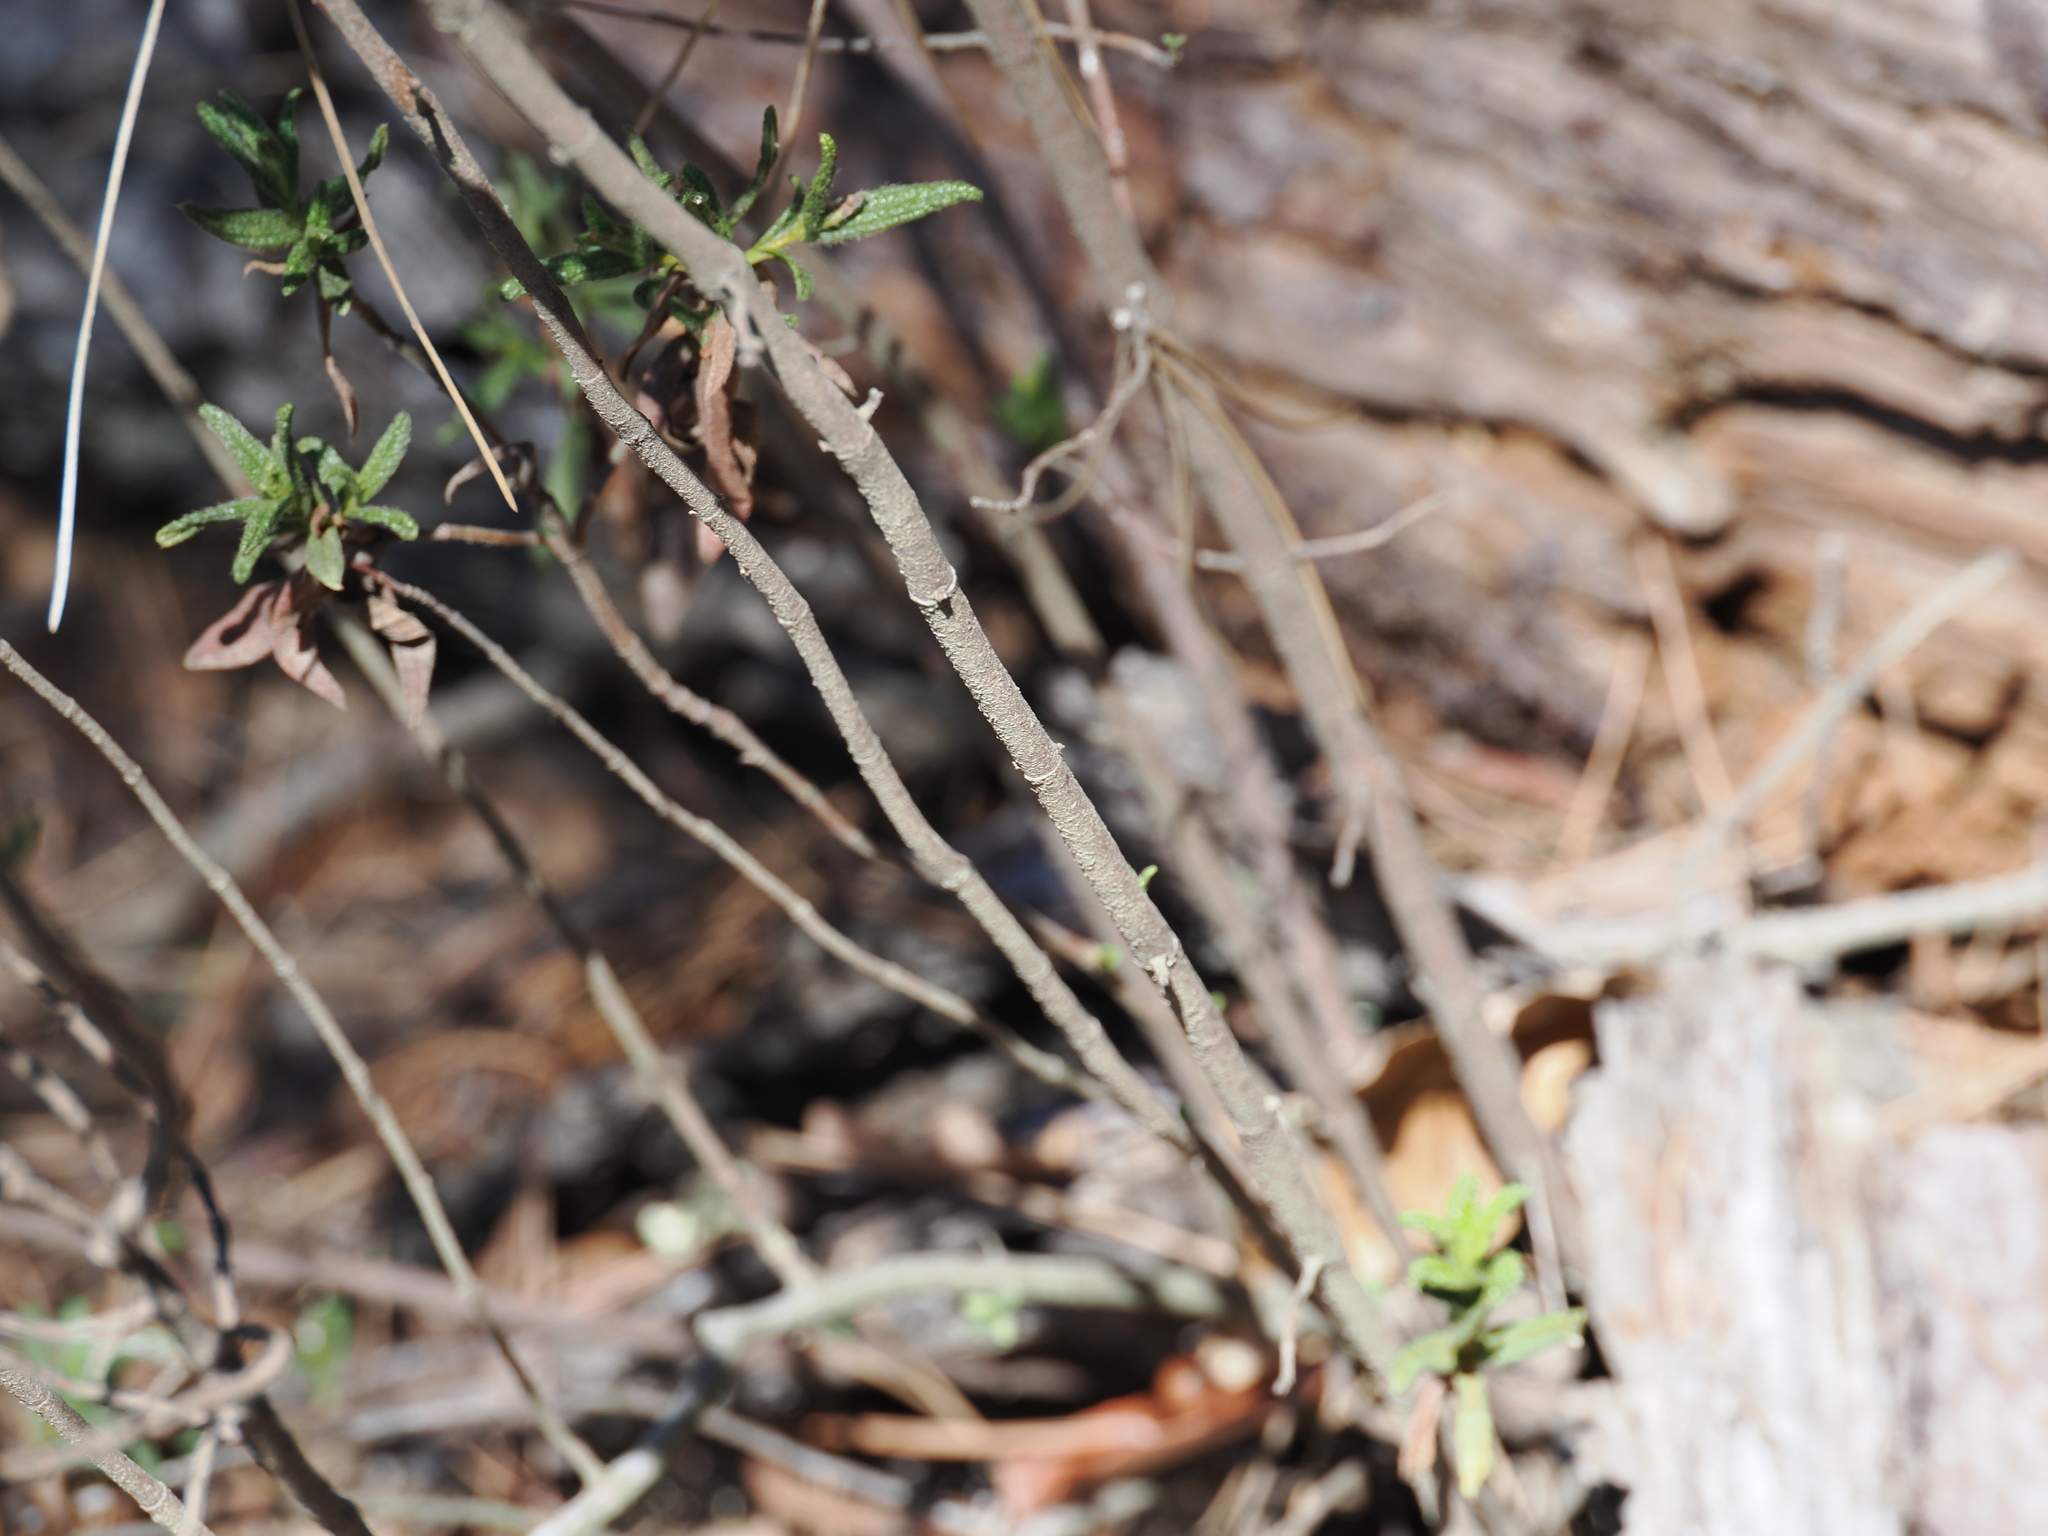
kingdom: Plantae
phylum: Tracheophyta
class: Magnoliopsida
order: Malvales
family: Cistaceae
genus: Cistus
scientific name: Cistus monspeliensis
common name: Montpelier cistus
